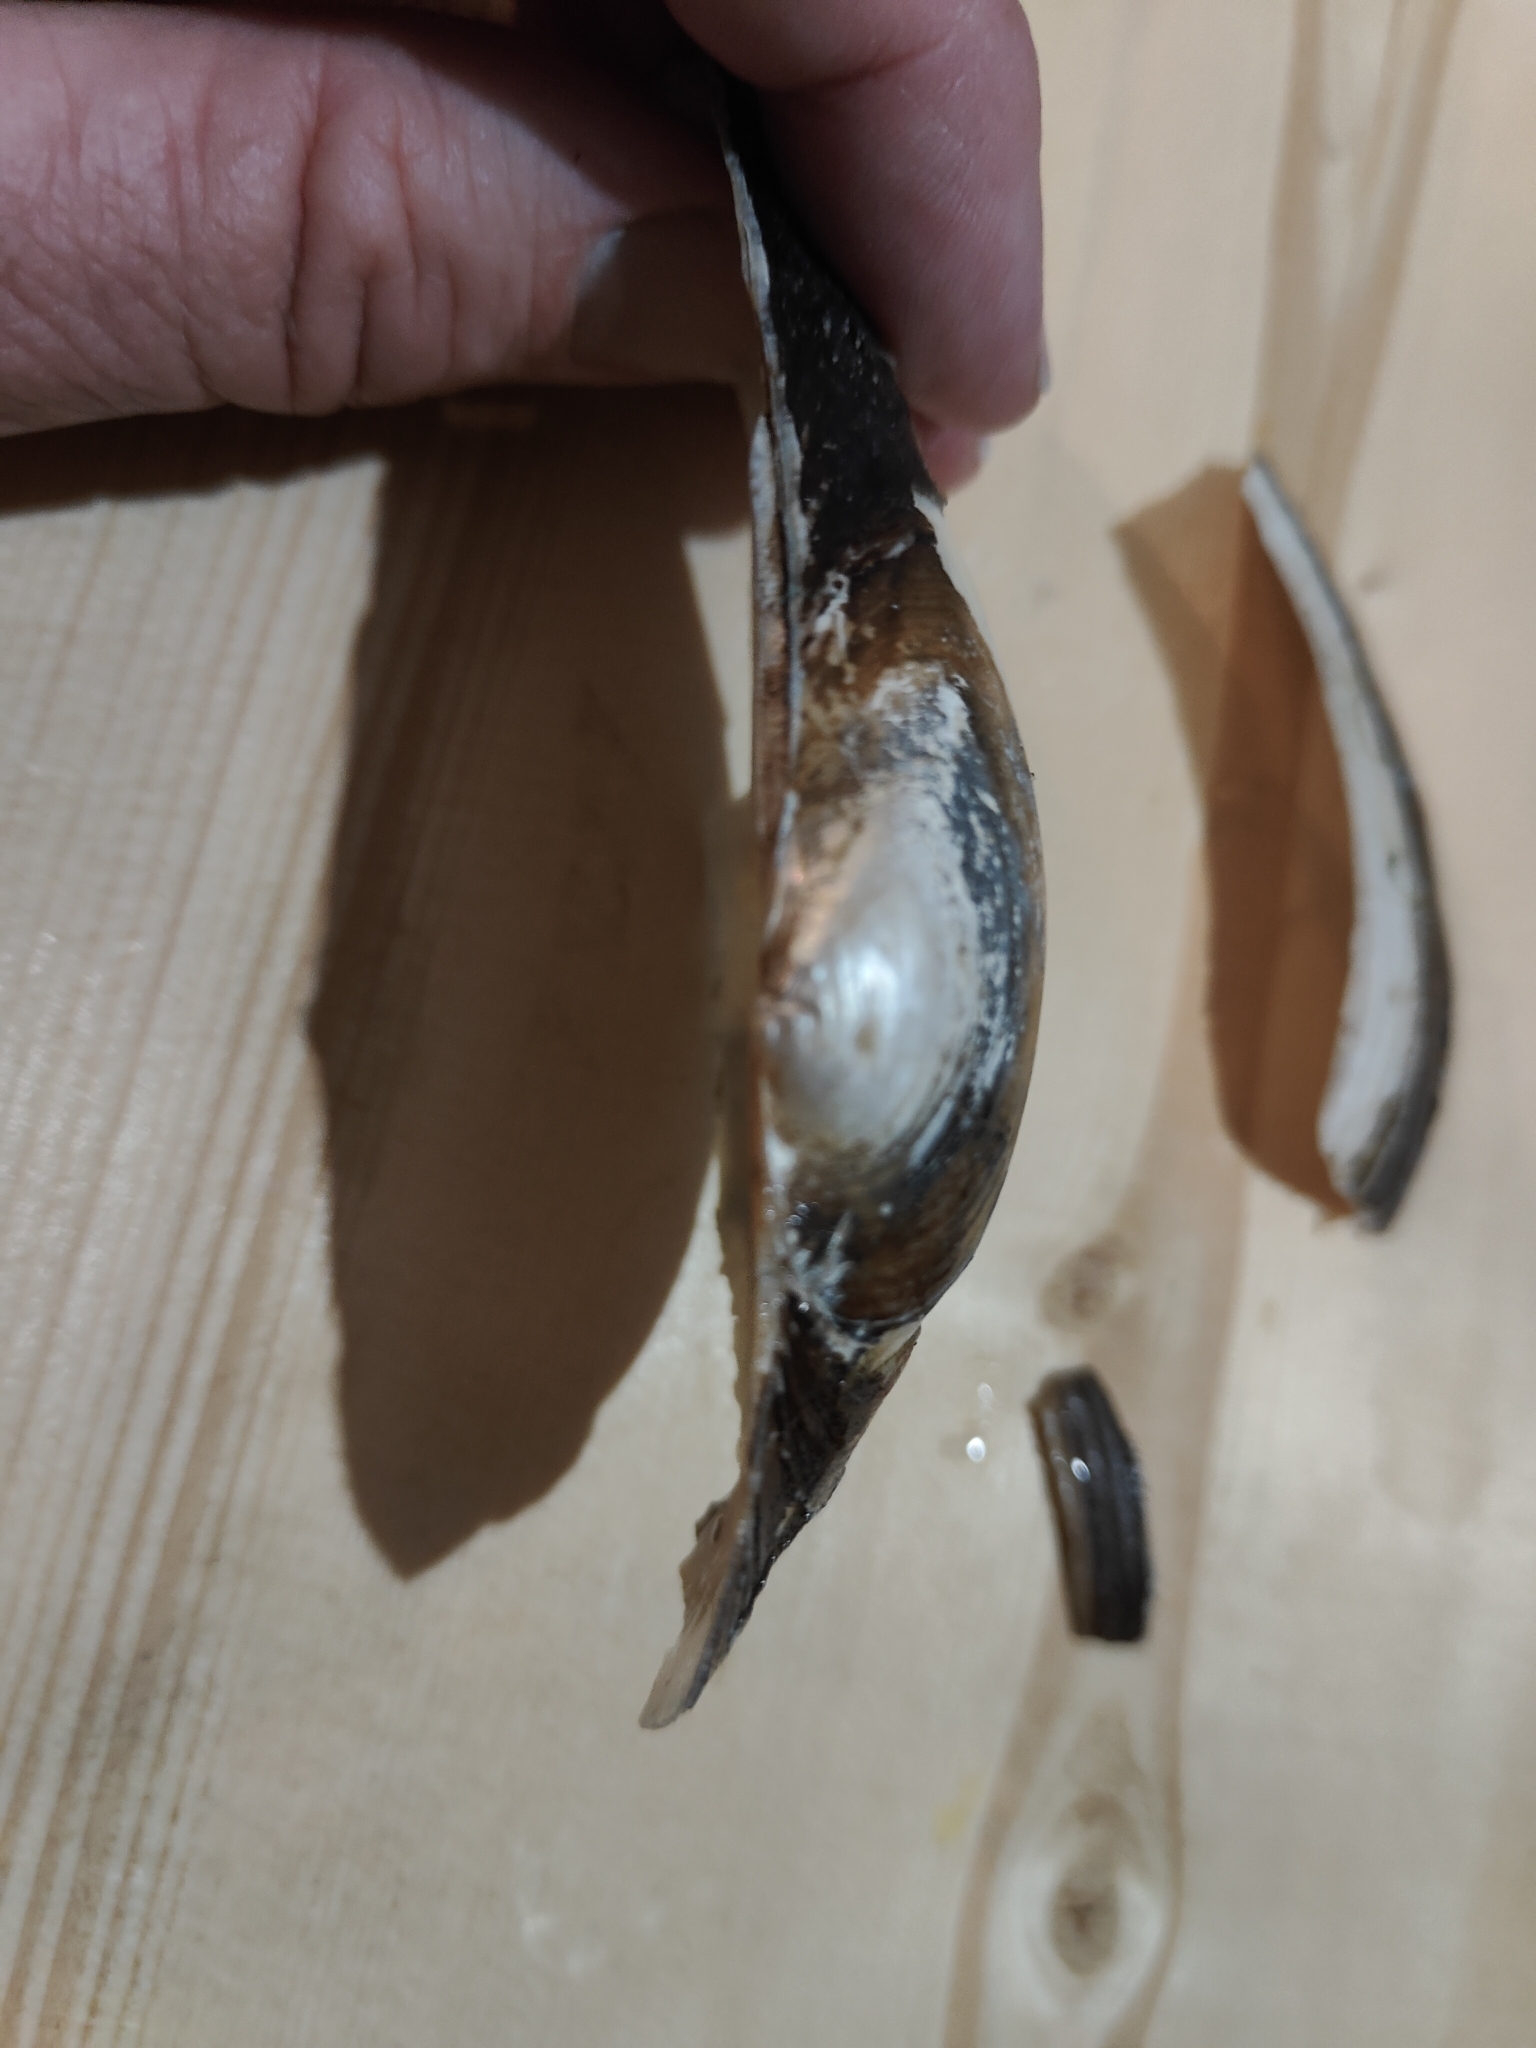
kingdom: Animalia
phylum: Mollusca
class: Bivalvia
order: Unionida
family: Unionidae
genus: Pyganodon
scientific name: Pyganodon grandis
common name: Giant floater
